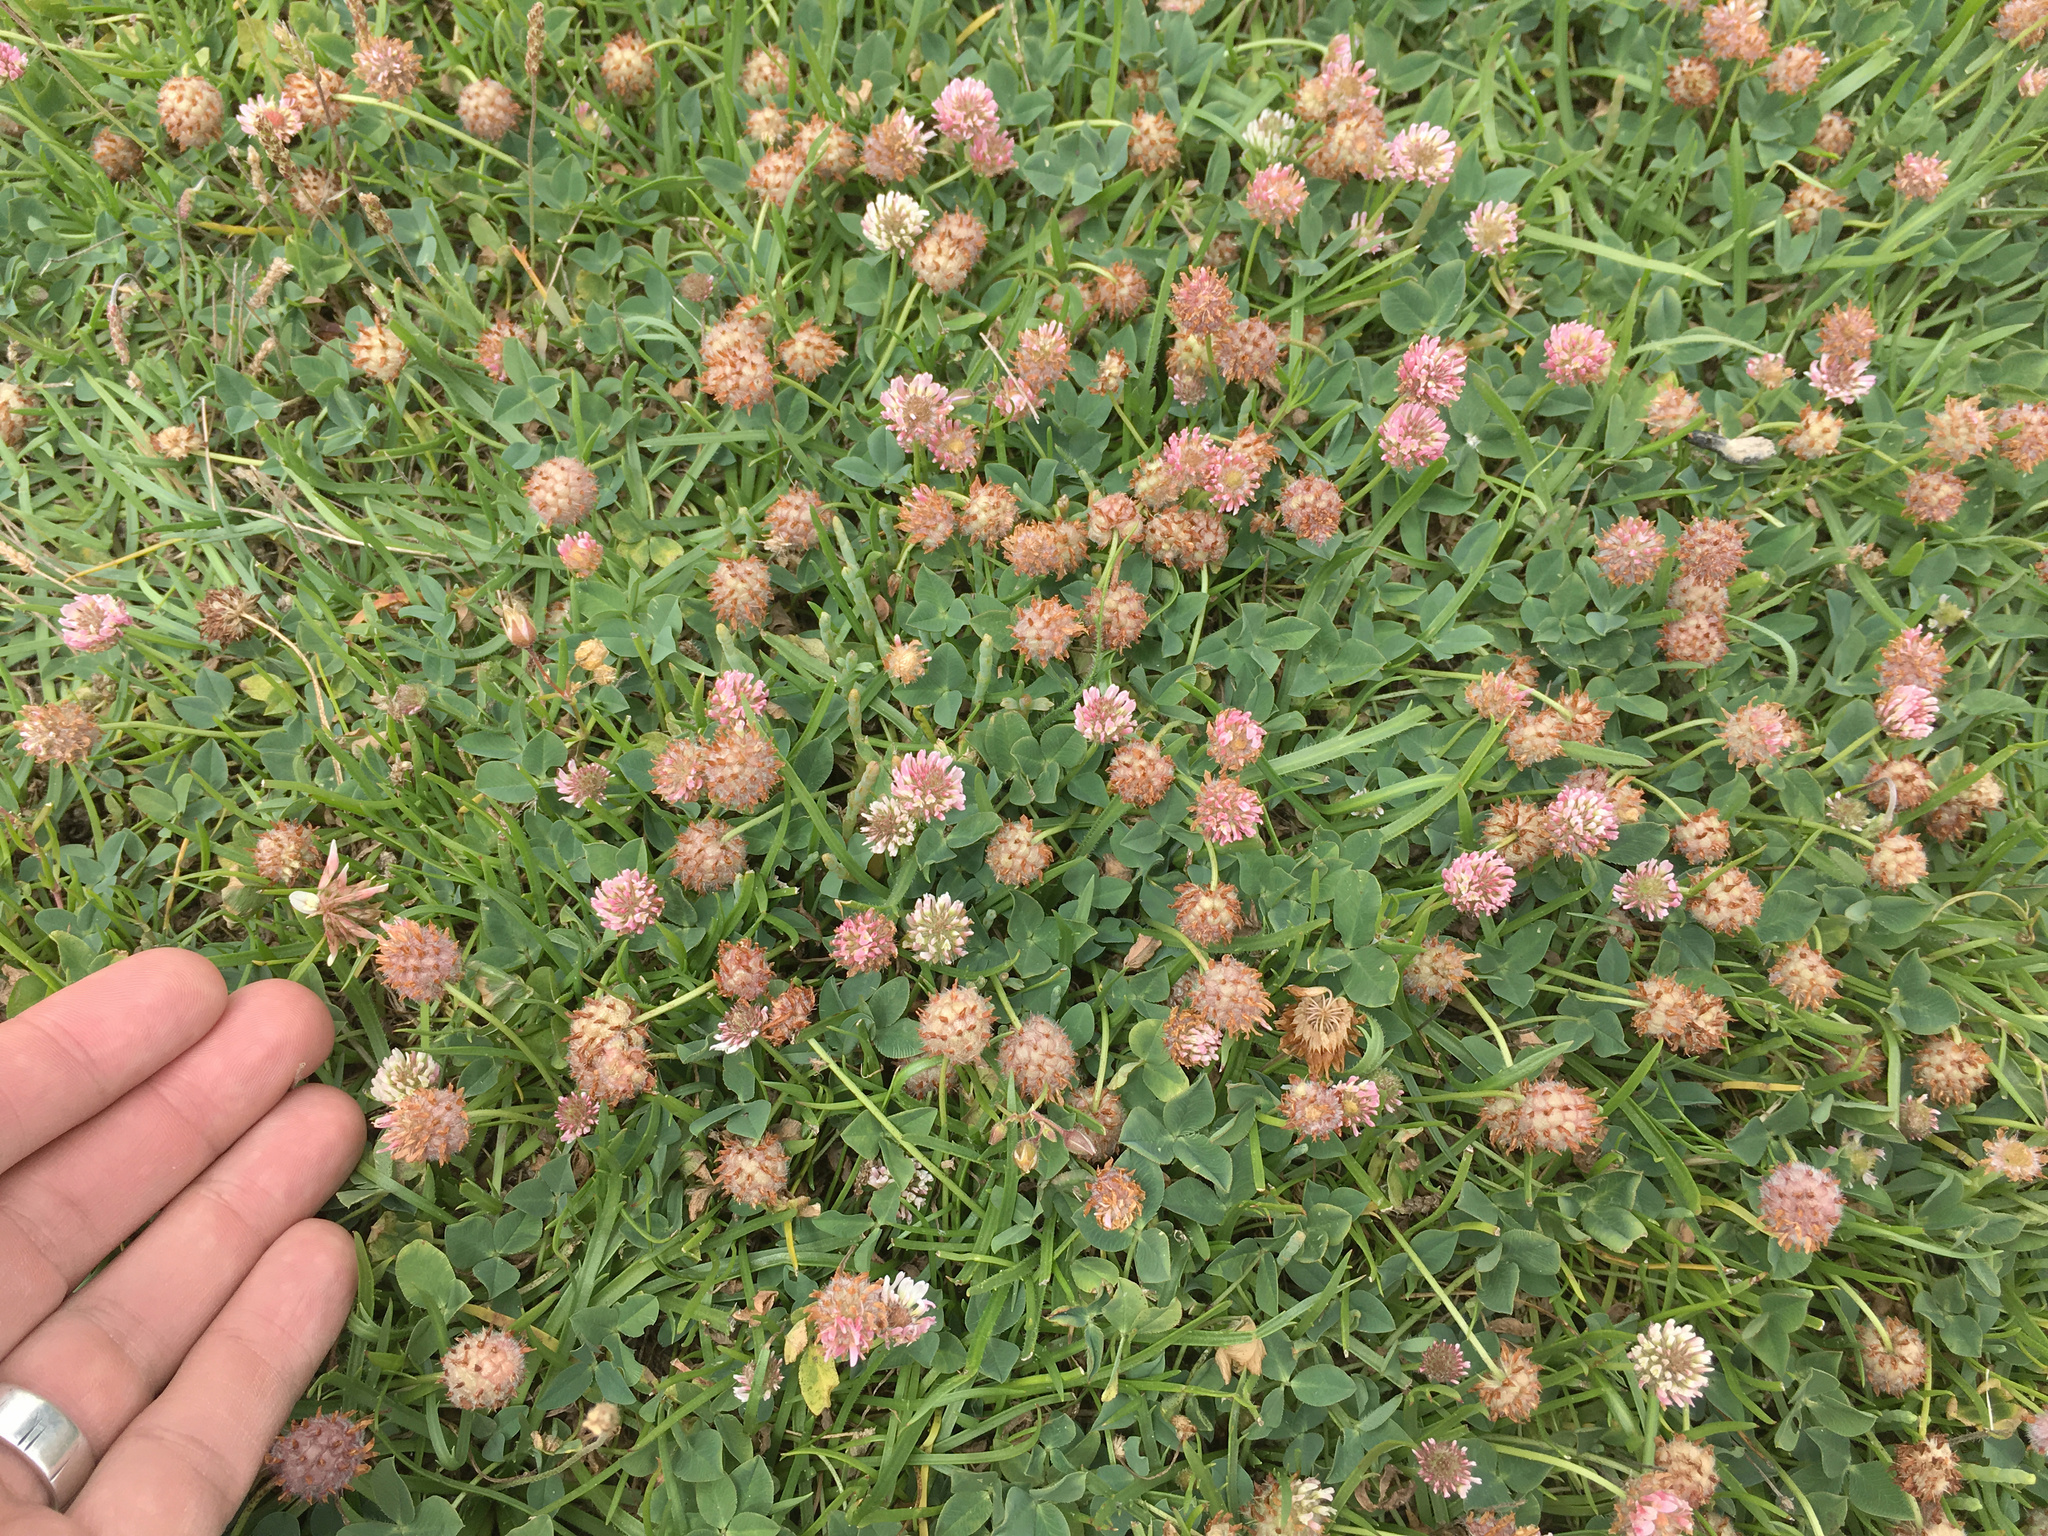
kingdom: Plantae
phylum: Tracheophyta
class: Magnoliopsida
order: Fabales
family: Fabaceae
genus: Trifolium
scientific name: Trifolium fragiferum
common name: Strawberry clover
